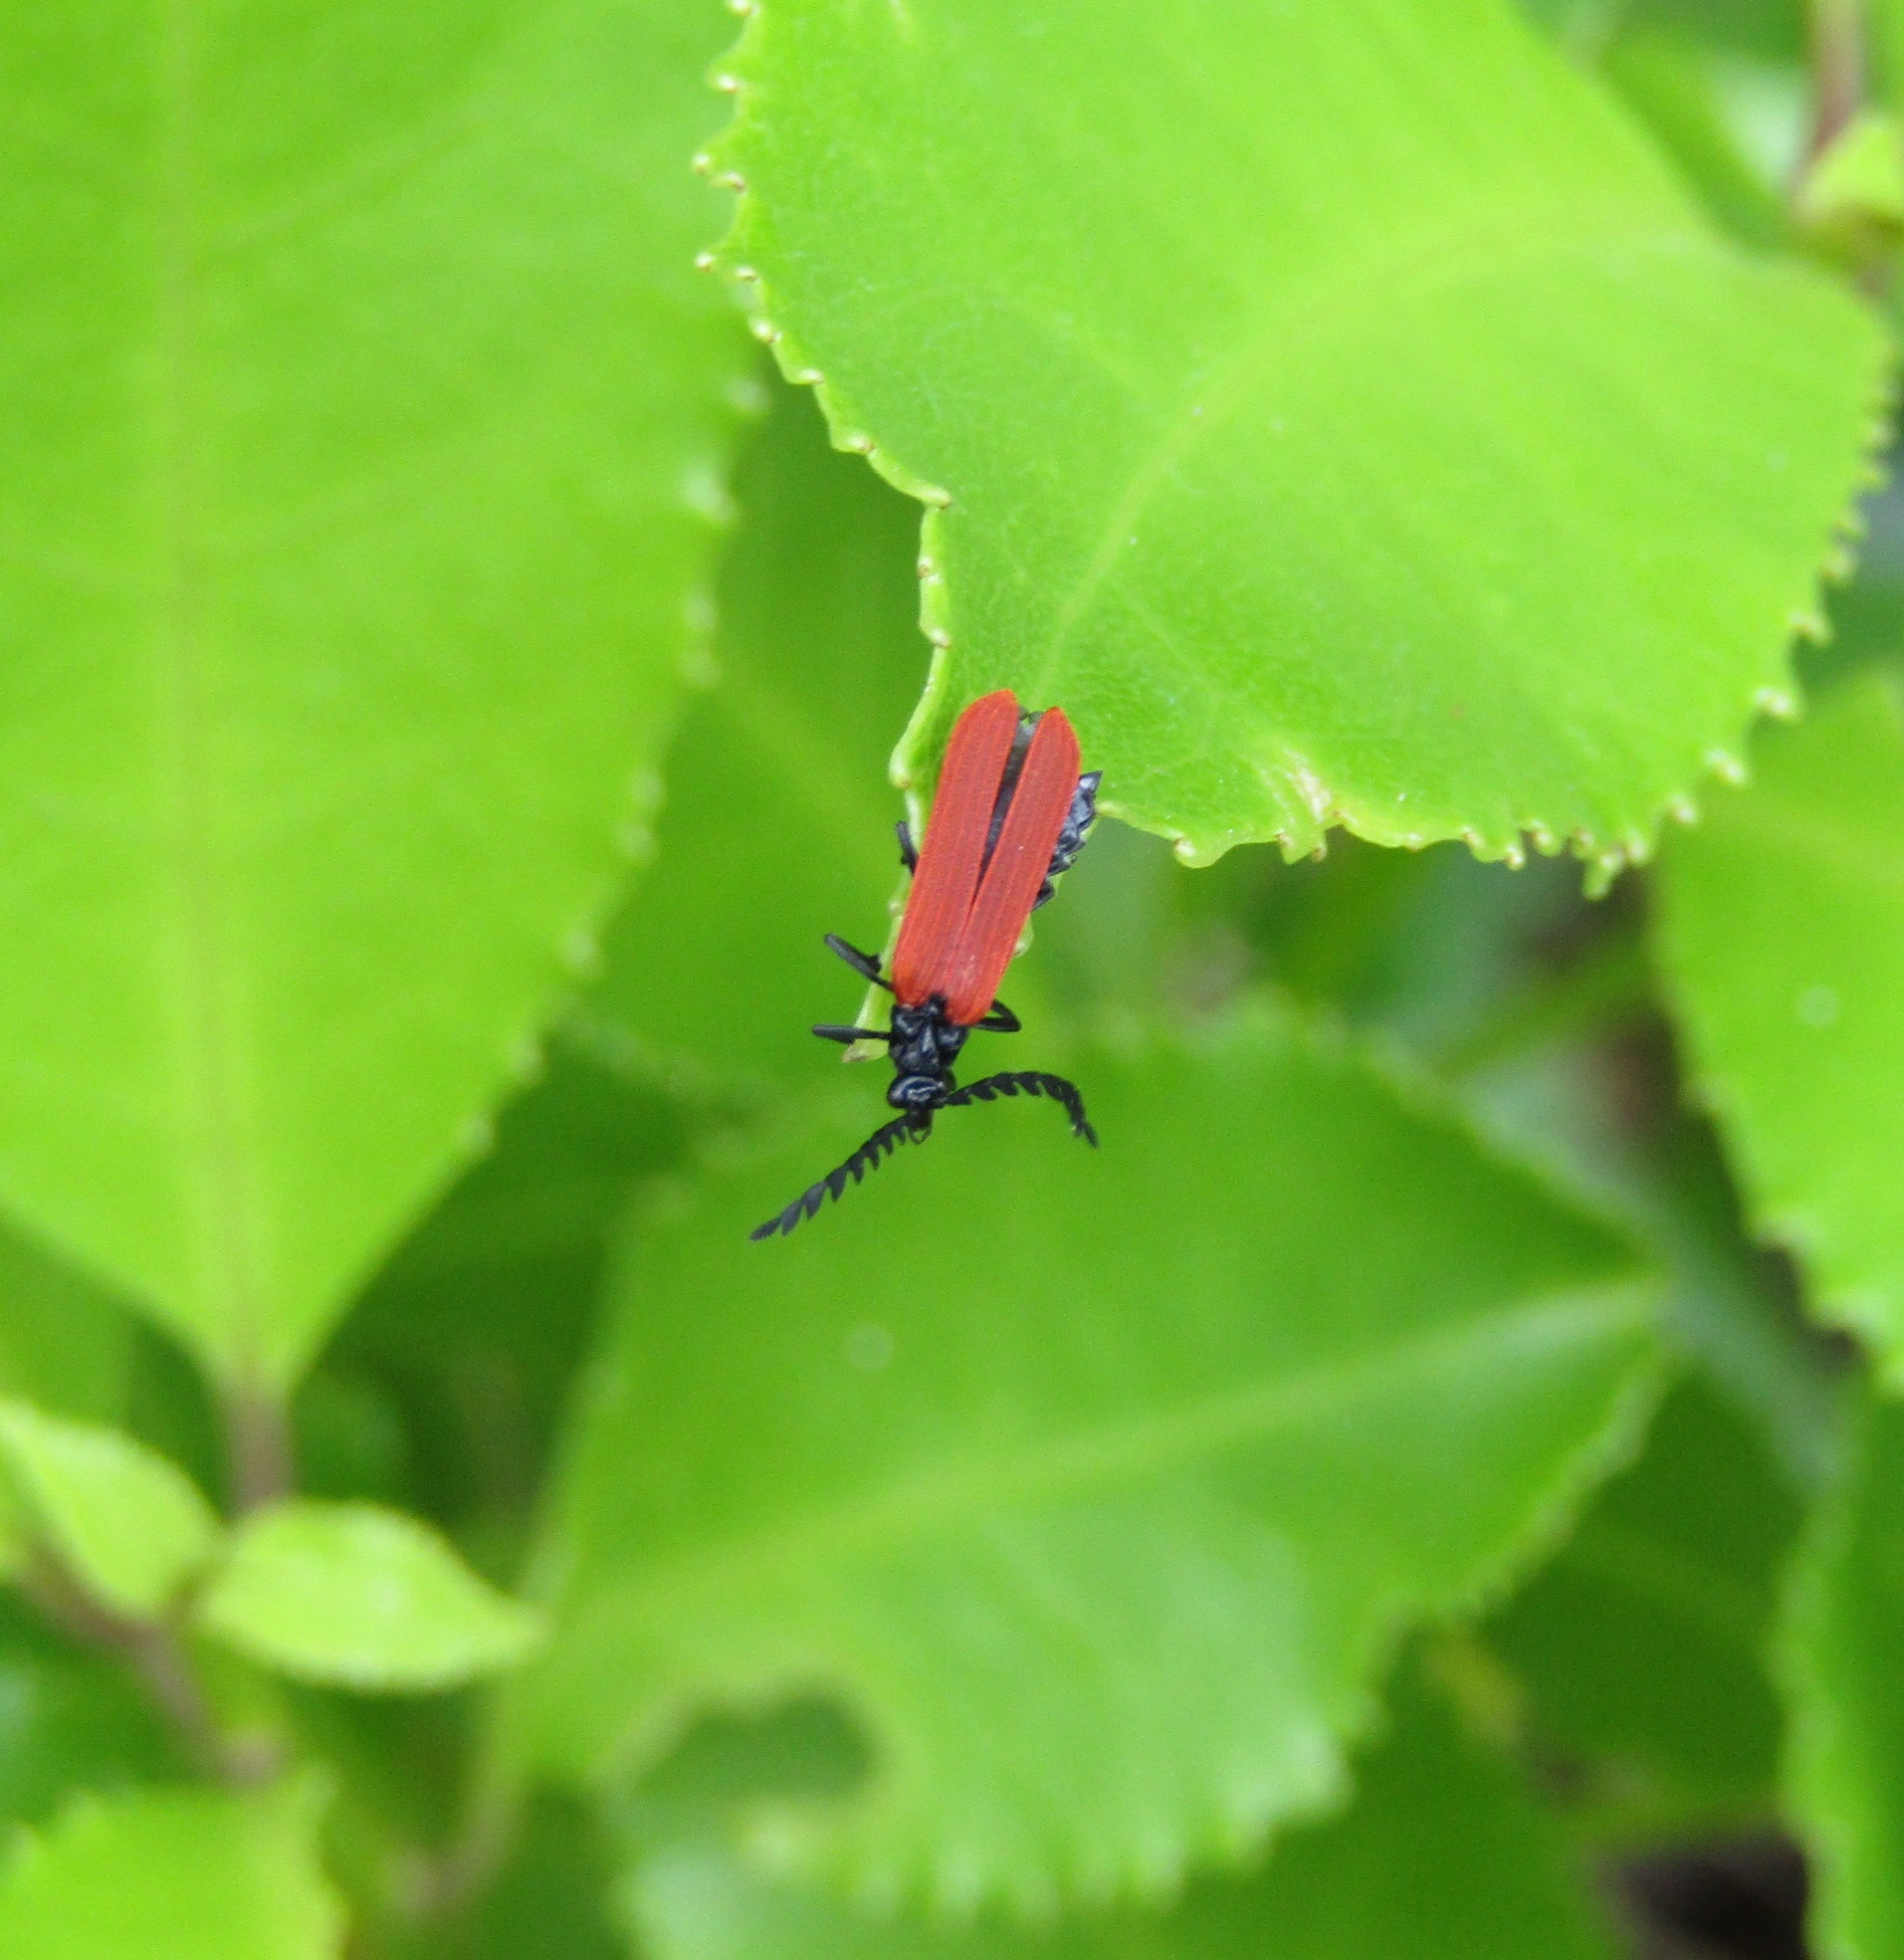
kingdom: Animalia
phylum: Arthropoda
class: Insecta
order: Coleoptera
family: Lycidae
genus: Porrostoma
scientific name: Porrostoma rufipenne
